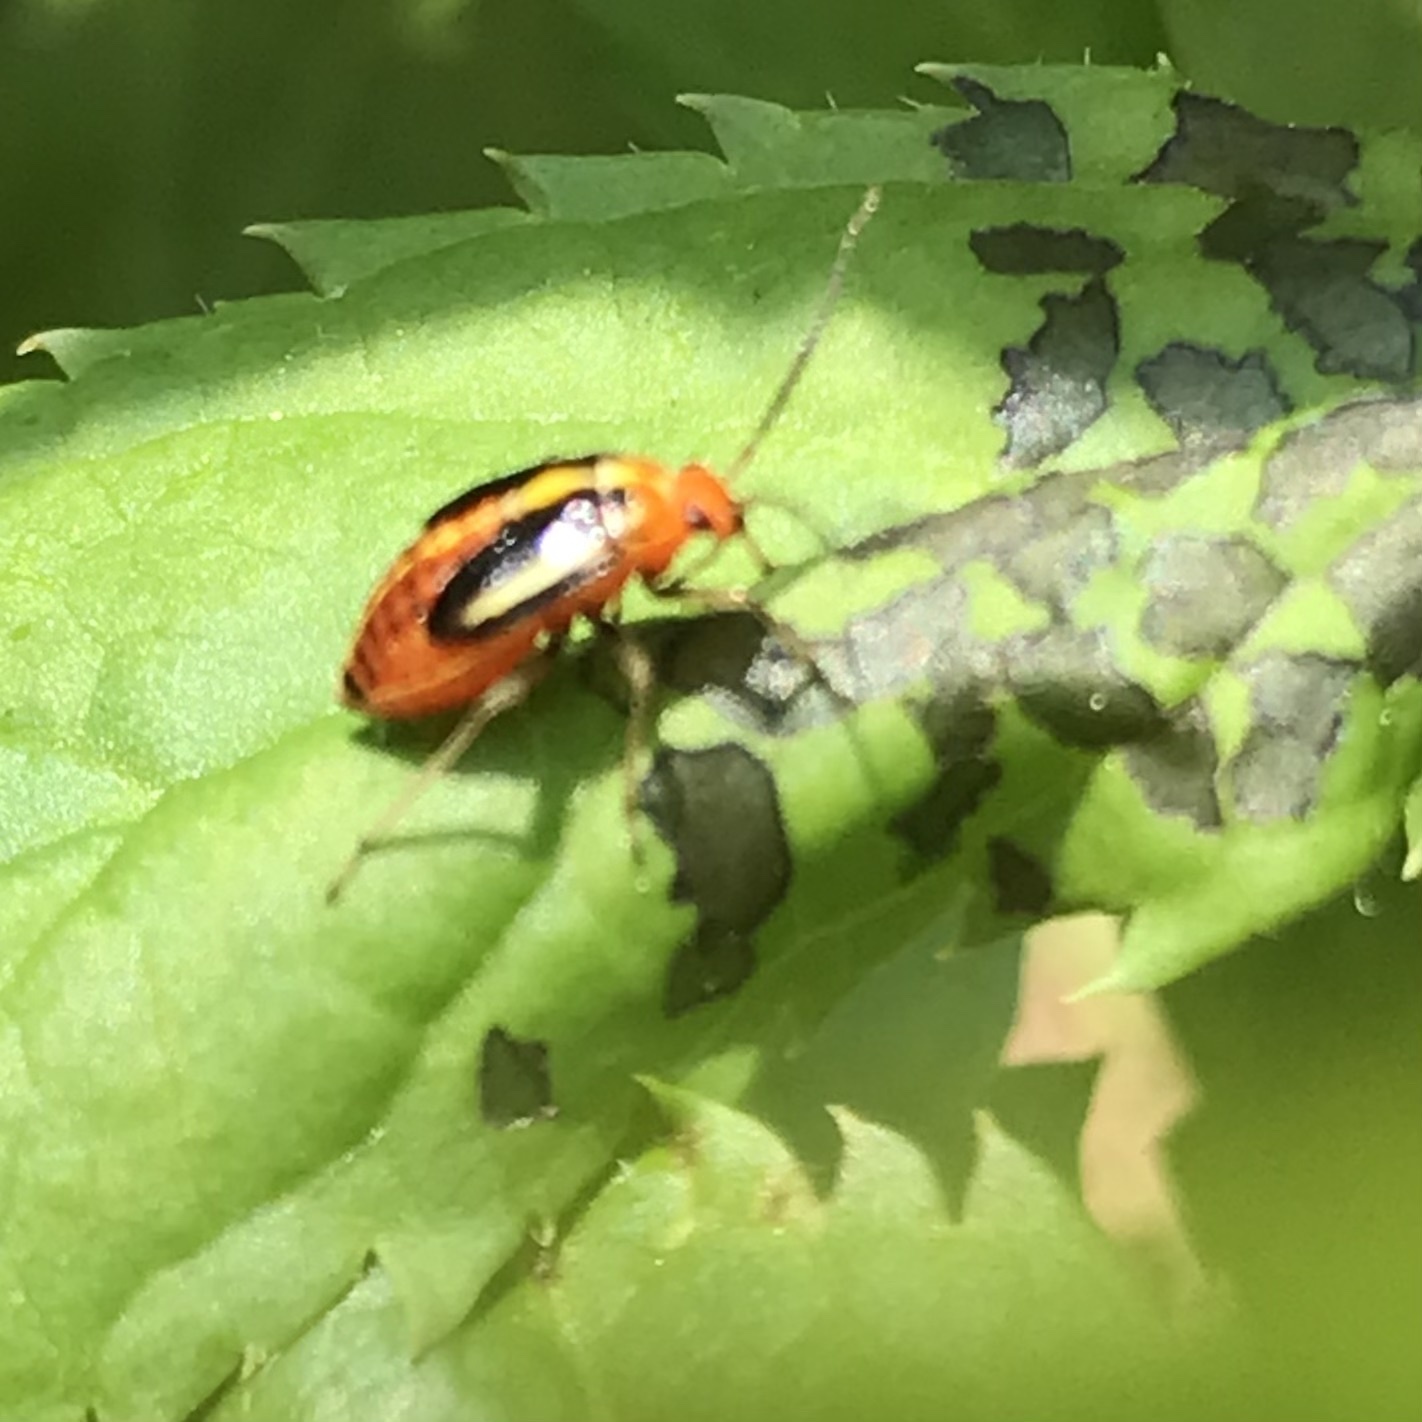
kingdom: Animalia
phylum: Arthropoda
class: Insecta
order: Hemiptera
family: Miridae
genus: Poecilocapsus
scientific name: Poecilocapsus lineatus
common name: Four-lined plant bug
